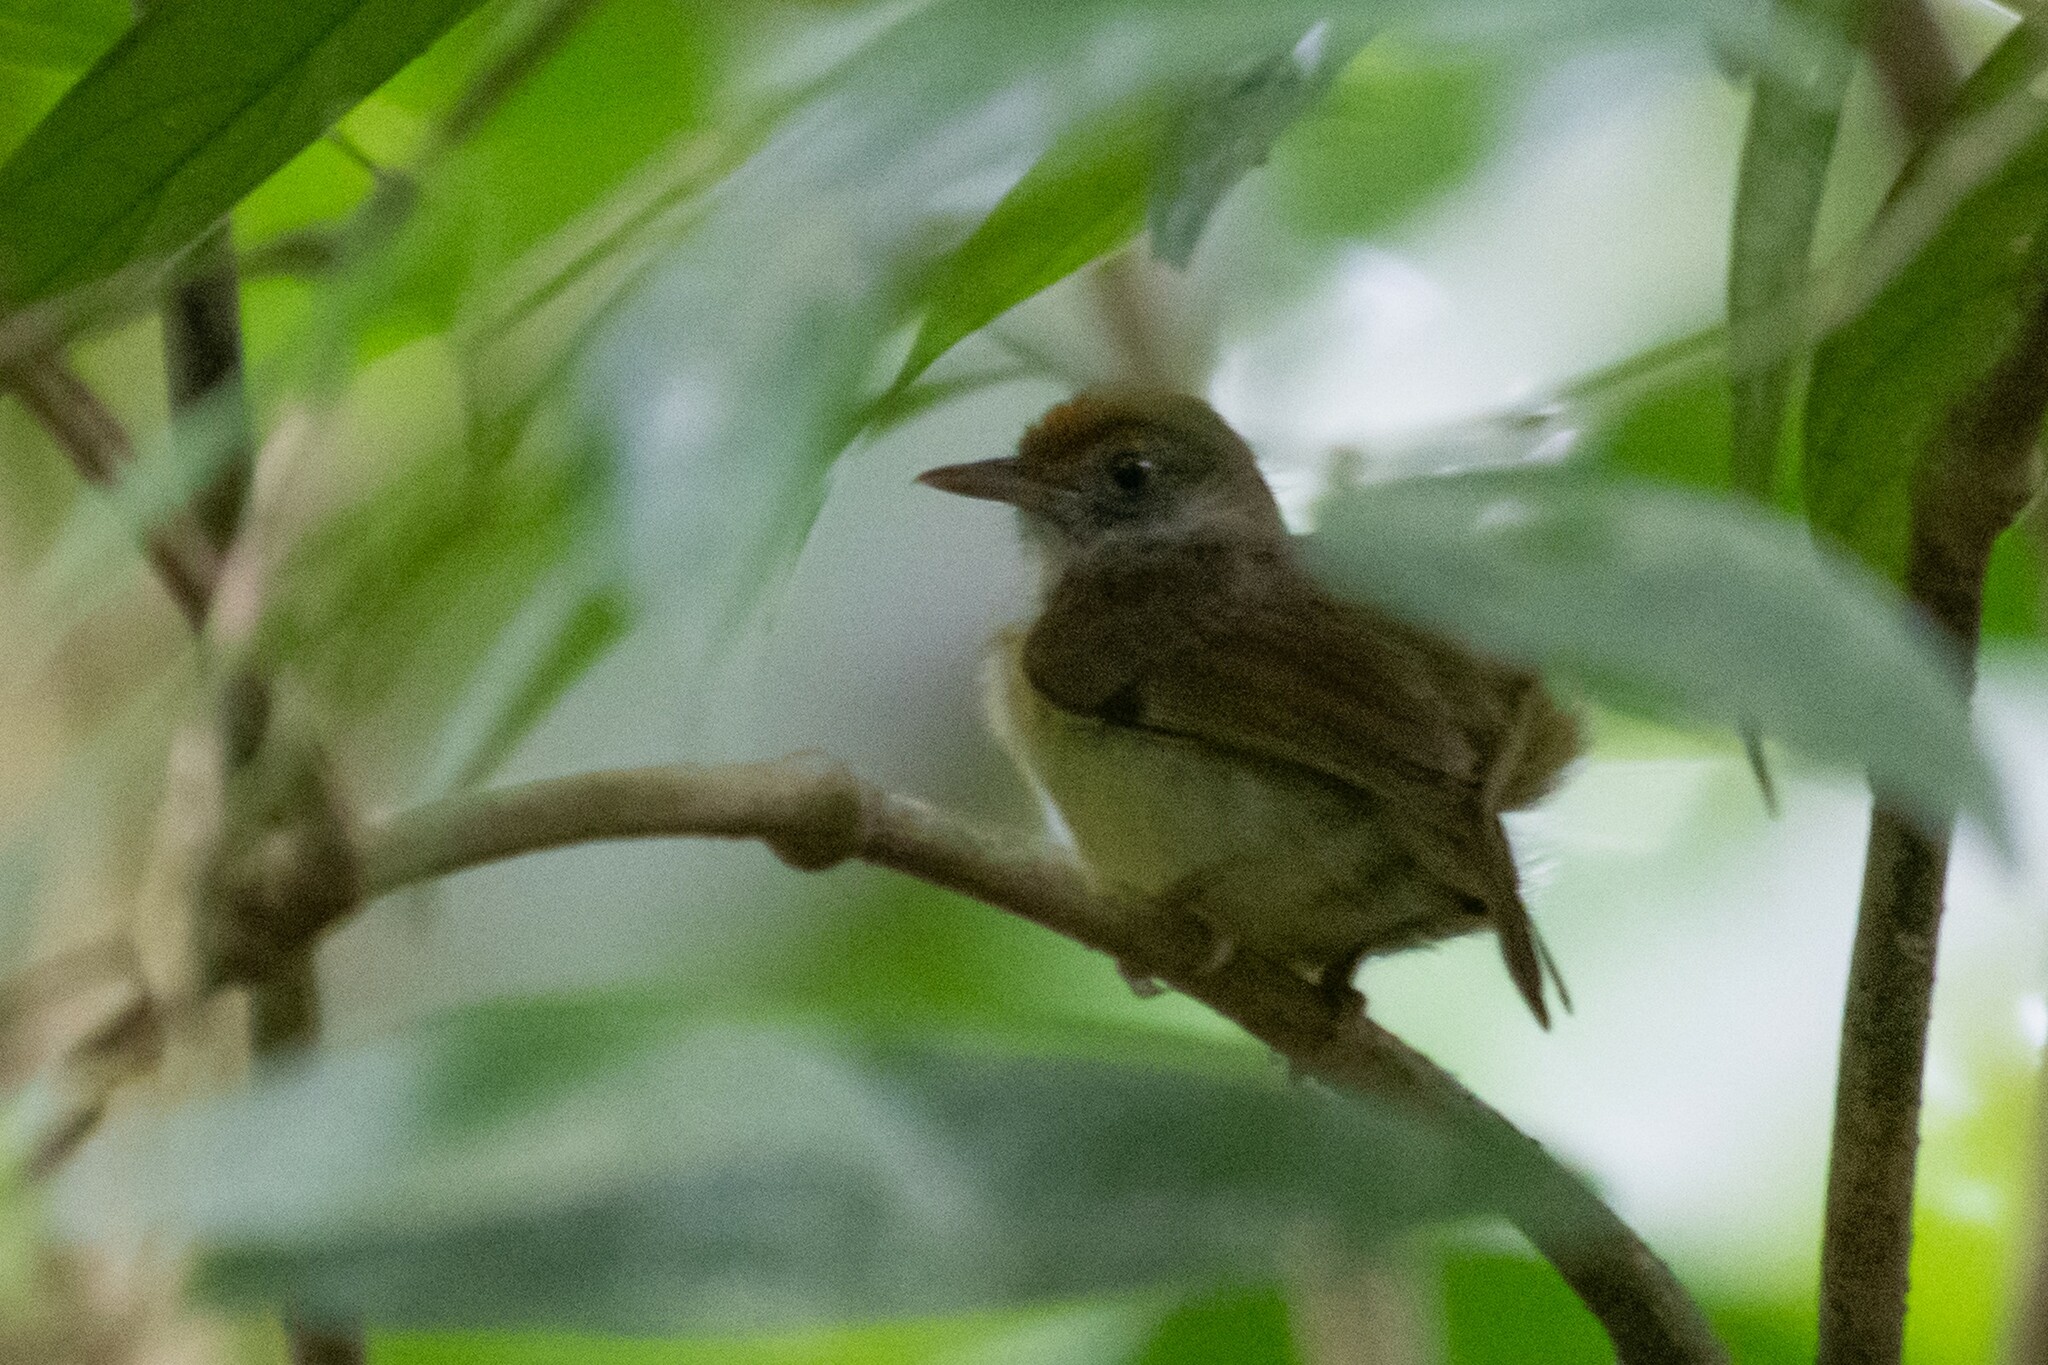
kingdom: Animalia
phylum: Chordata
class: Aves
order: Passeriformes
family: Vireonidae
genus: Hylophilus
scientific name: Hylophilus ochraceiceps
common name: Tawny-crowned greenlet
